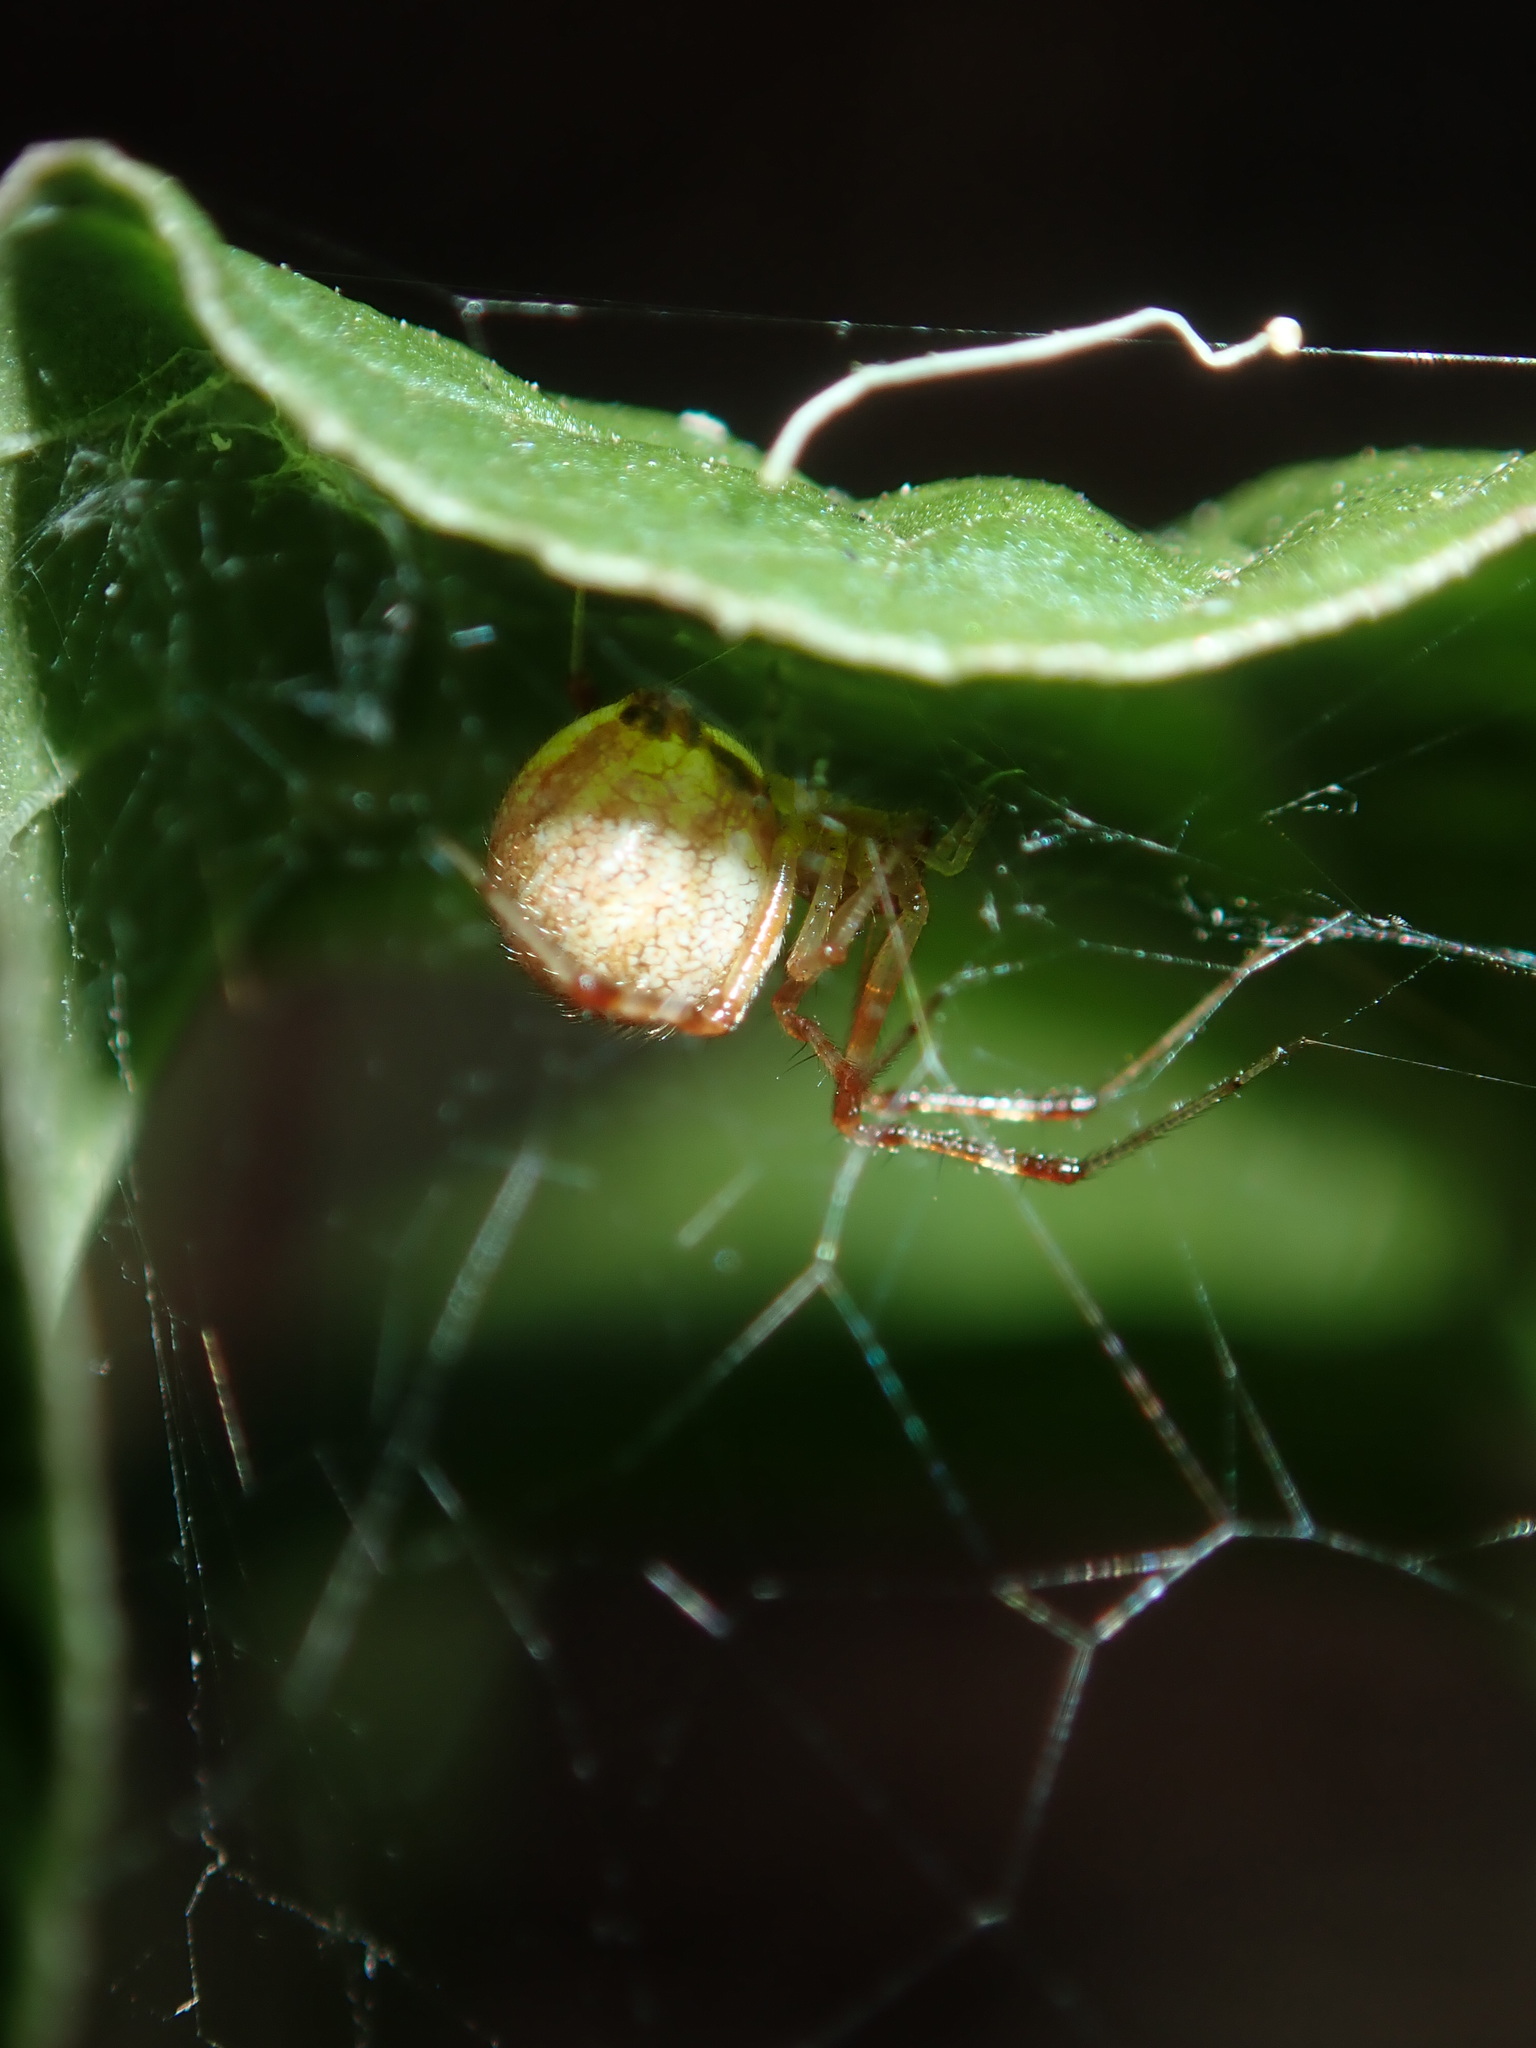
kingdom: Animalia
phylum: Arthropoda
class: Arachnida
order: Araneae
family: Theridiidae
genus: Cryptachaea
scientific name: Cryptachaea veruculata
